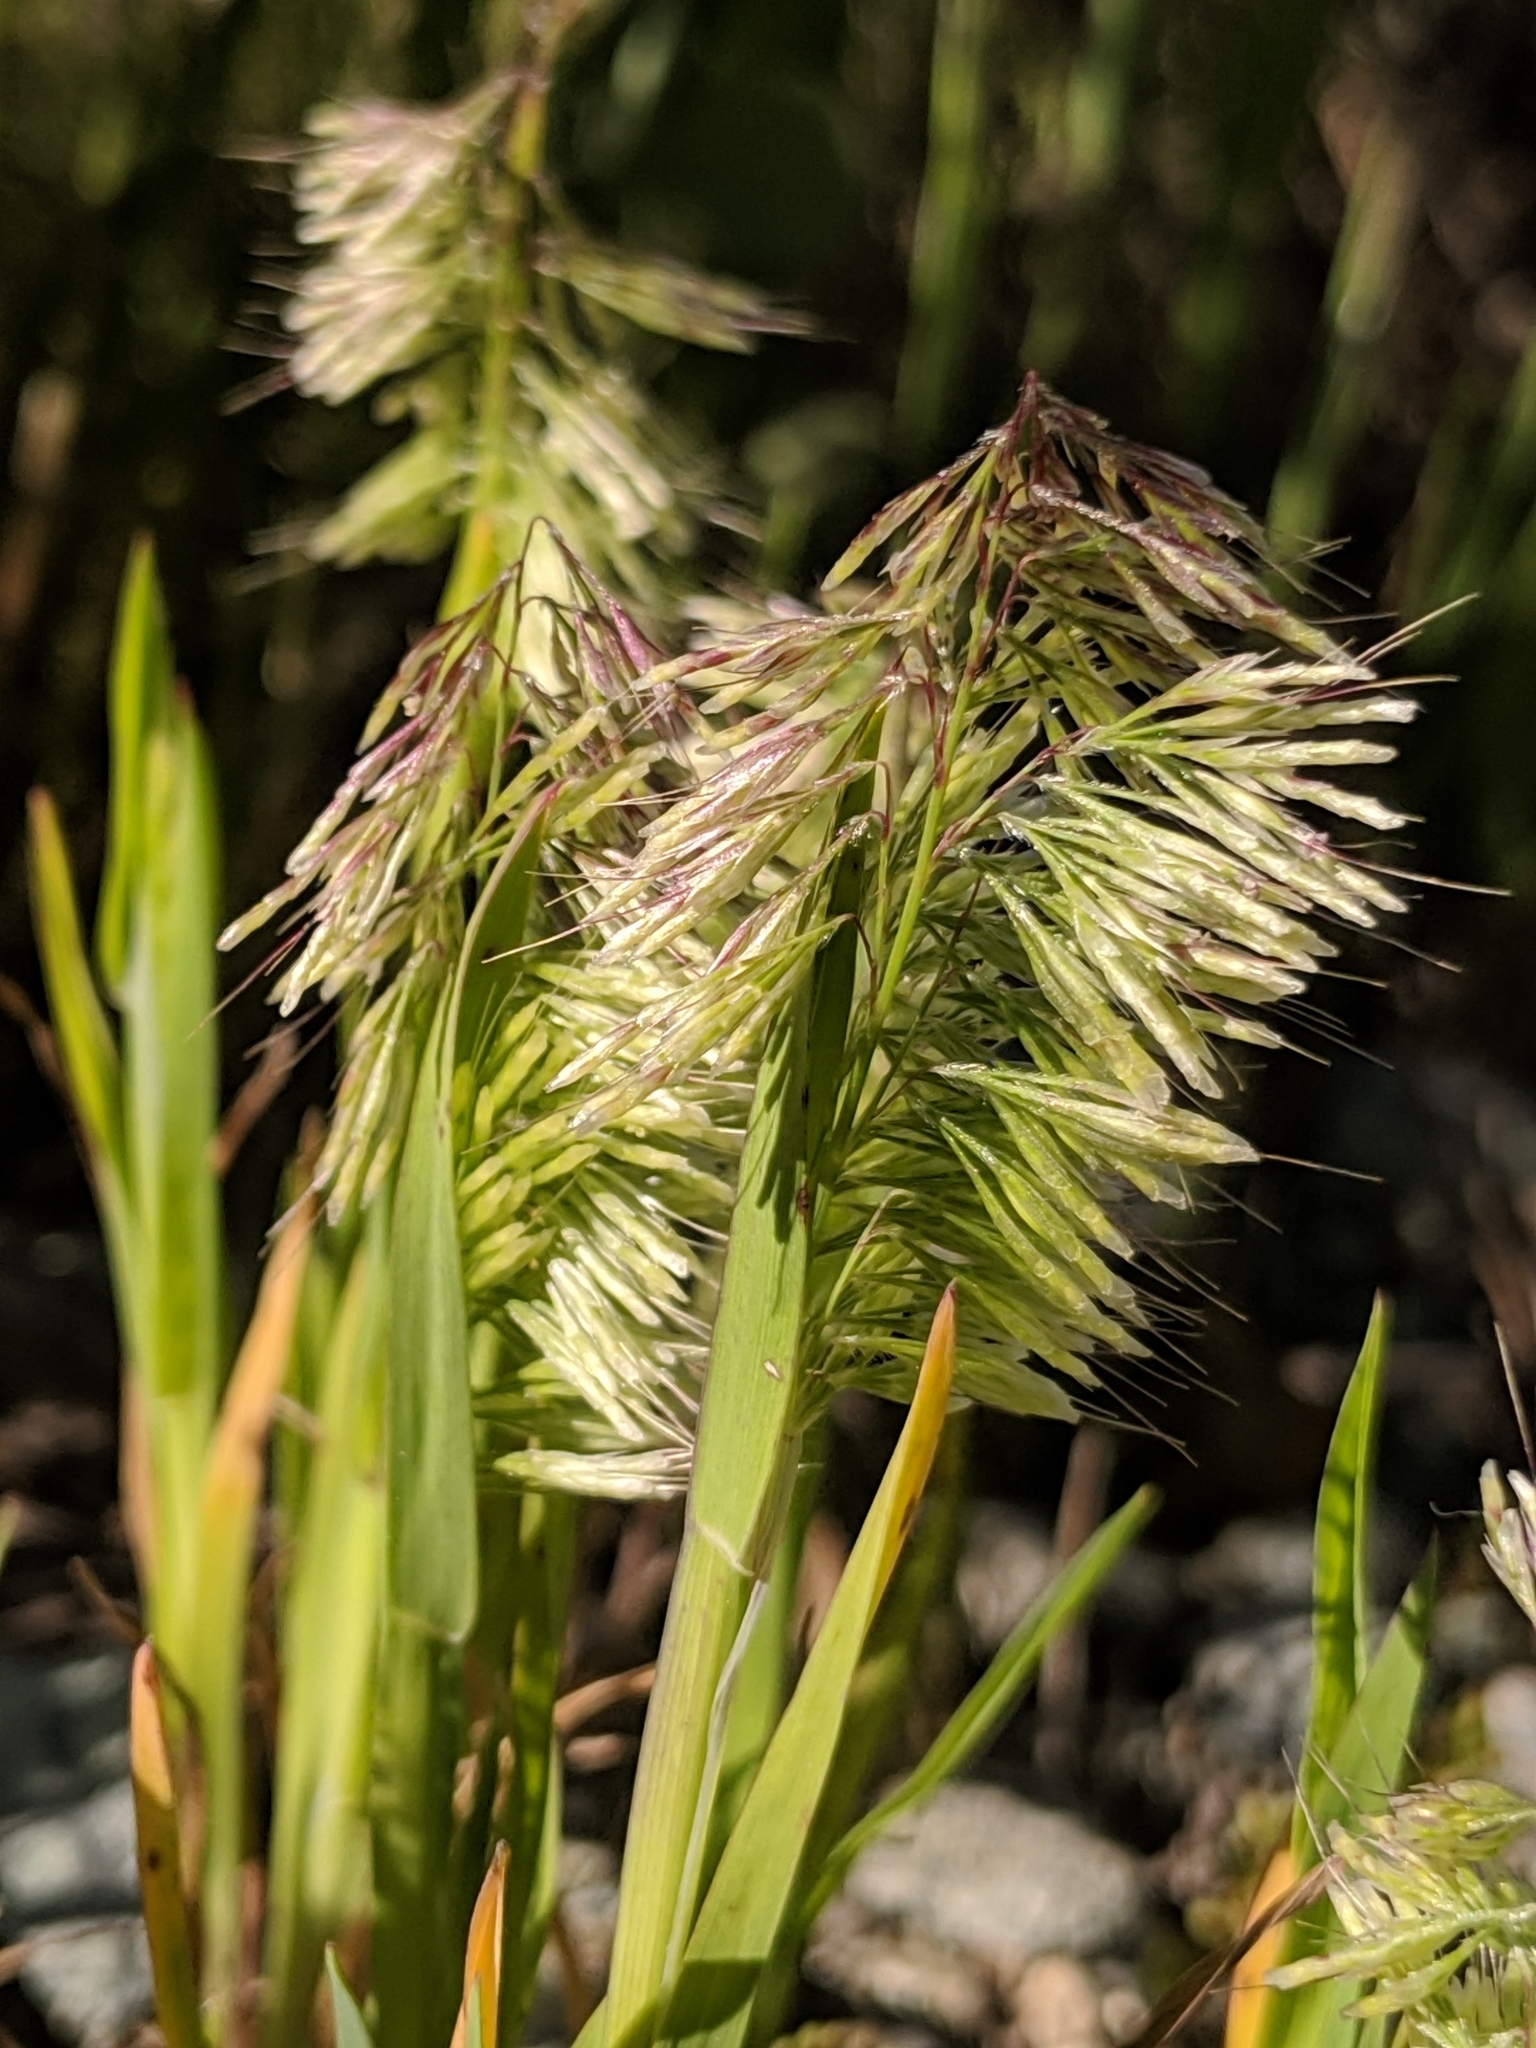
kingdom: Plantae
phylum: Tracheophyta
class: Liliopsida
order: Poales
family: Poaceae
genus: Lamarckia
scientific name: Lamarckia aurea
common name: Golden dog's-tail
